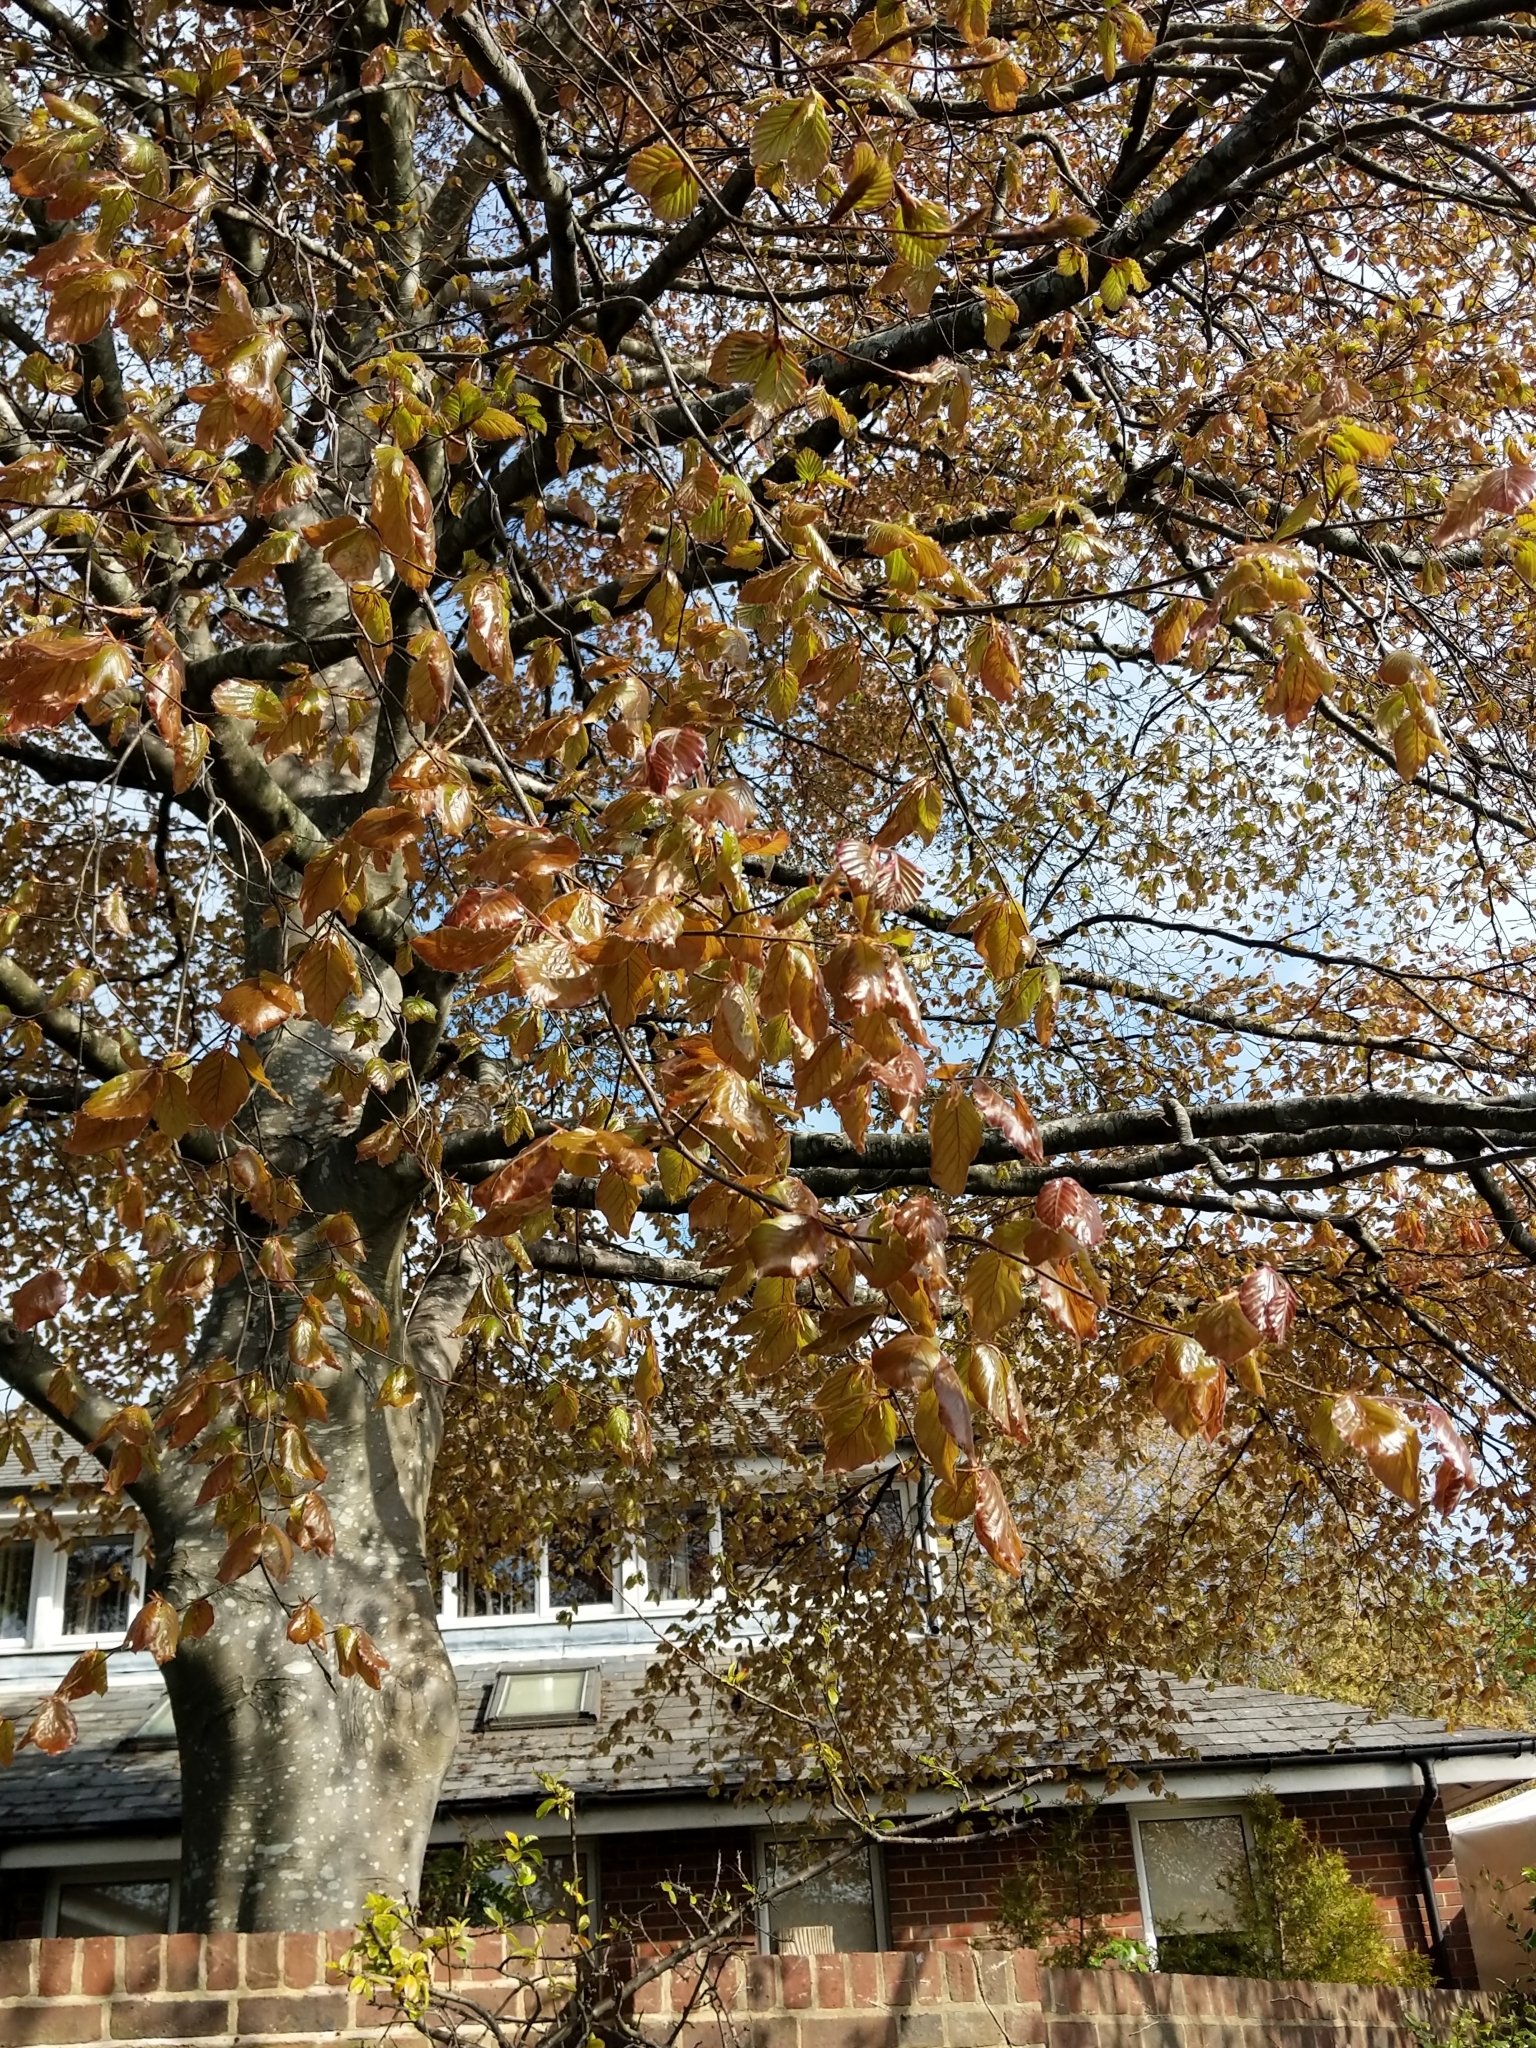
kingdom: Plantae
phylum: Tracheophyta
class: Magnoliopsida
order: Fagales
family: Fagaceae
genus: Fagus
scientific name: Fagus sylvatica
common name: Beech
